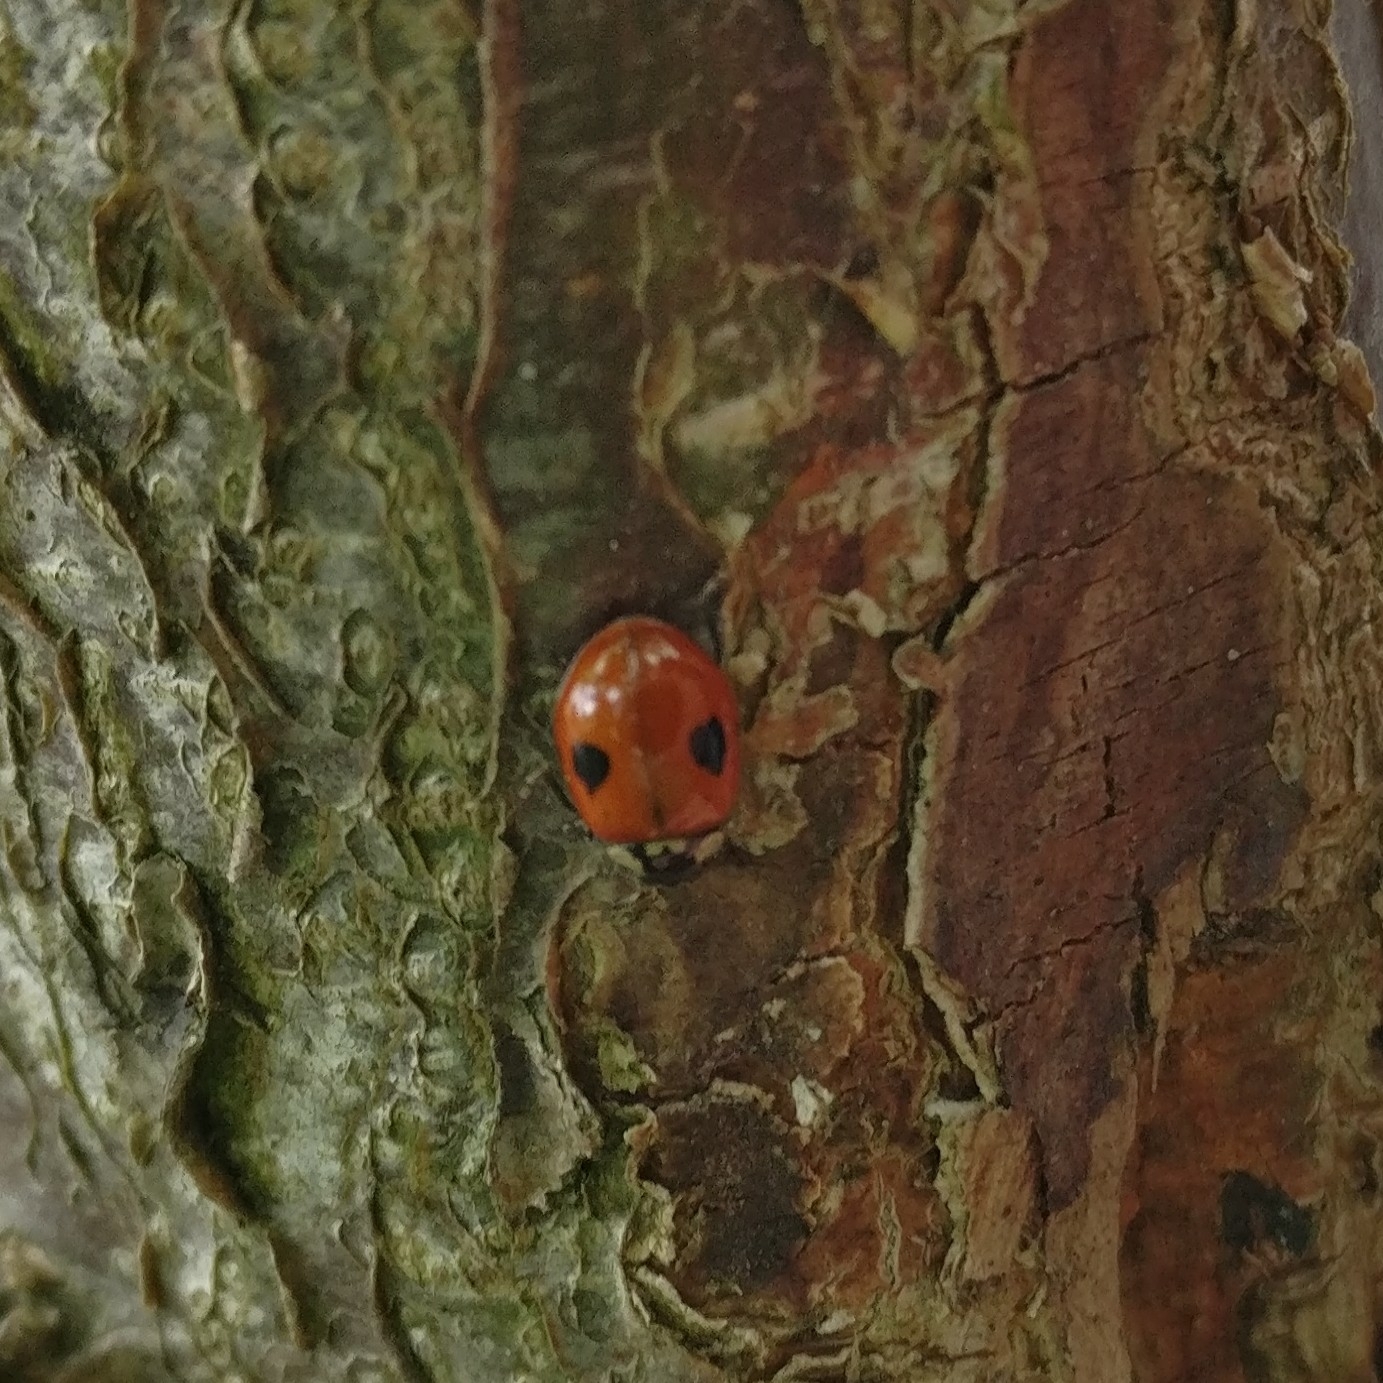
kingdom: Animalia
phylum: Arthropoda
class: Insecta
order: Coleoptera
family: Coccinellidae
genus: Adalia
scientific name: Adalia bipunctata
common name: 2-spot ladybird
